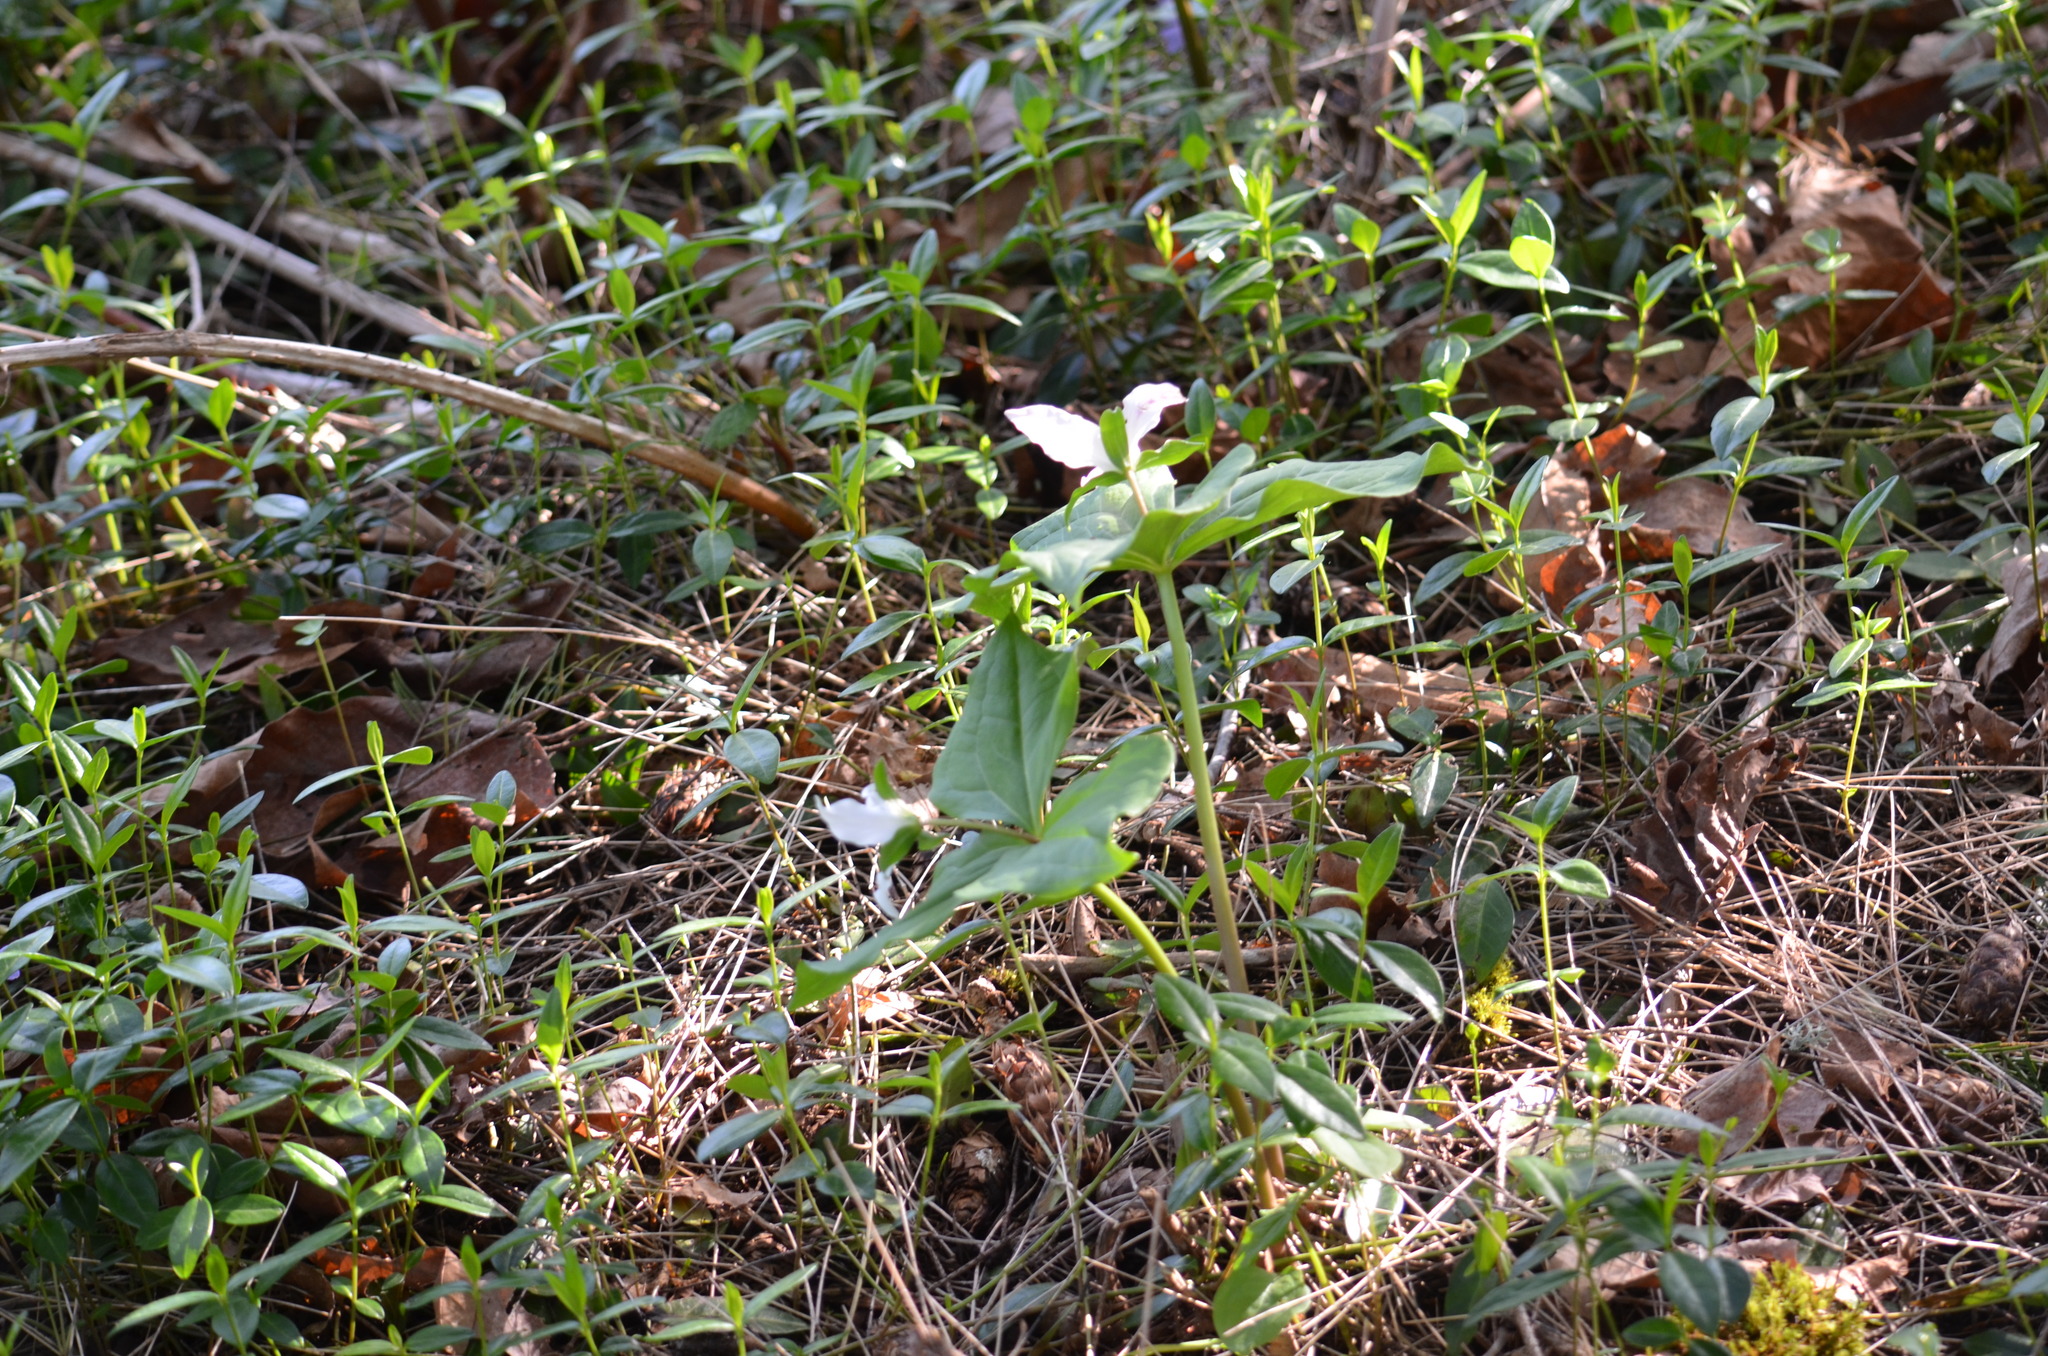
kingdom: Plantae
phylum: Tracheophyta
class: Liliopsida
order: Liliales
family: Melanthiaceae
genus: Trillium
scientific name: Trillium ovatum
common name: Pacific trillium
